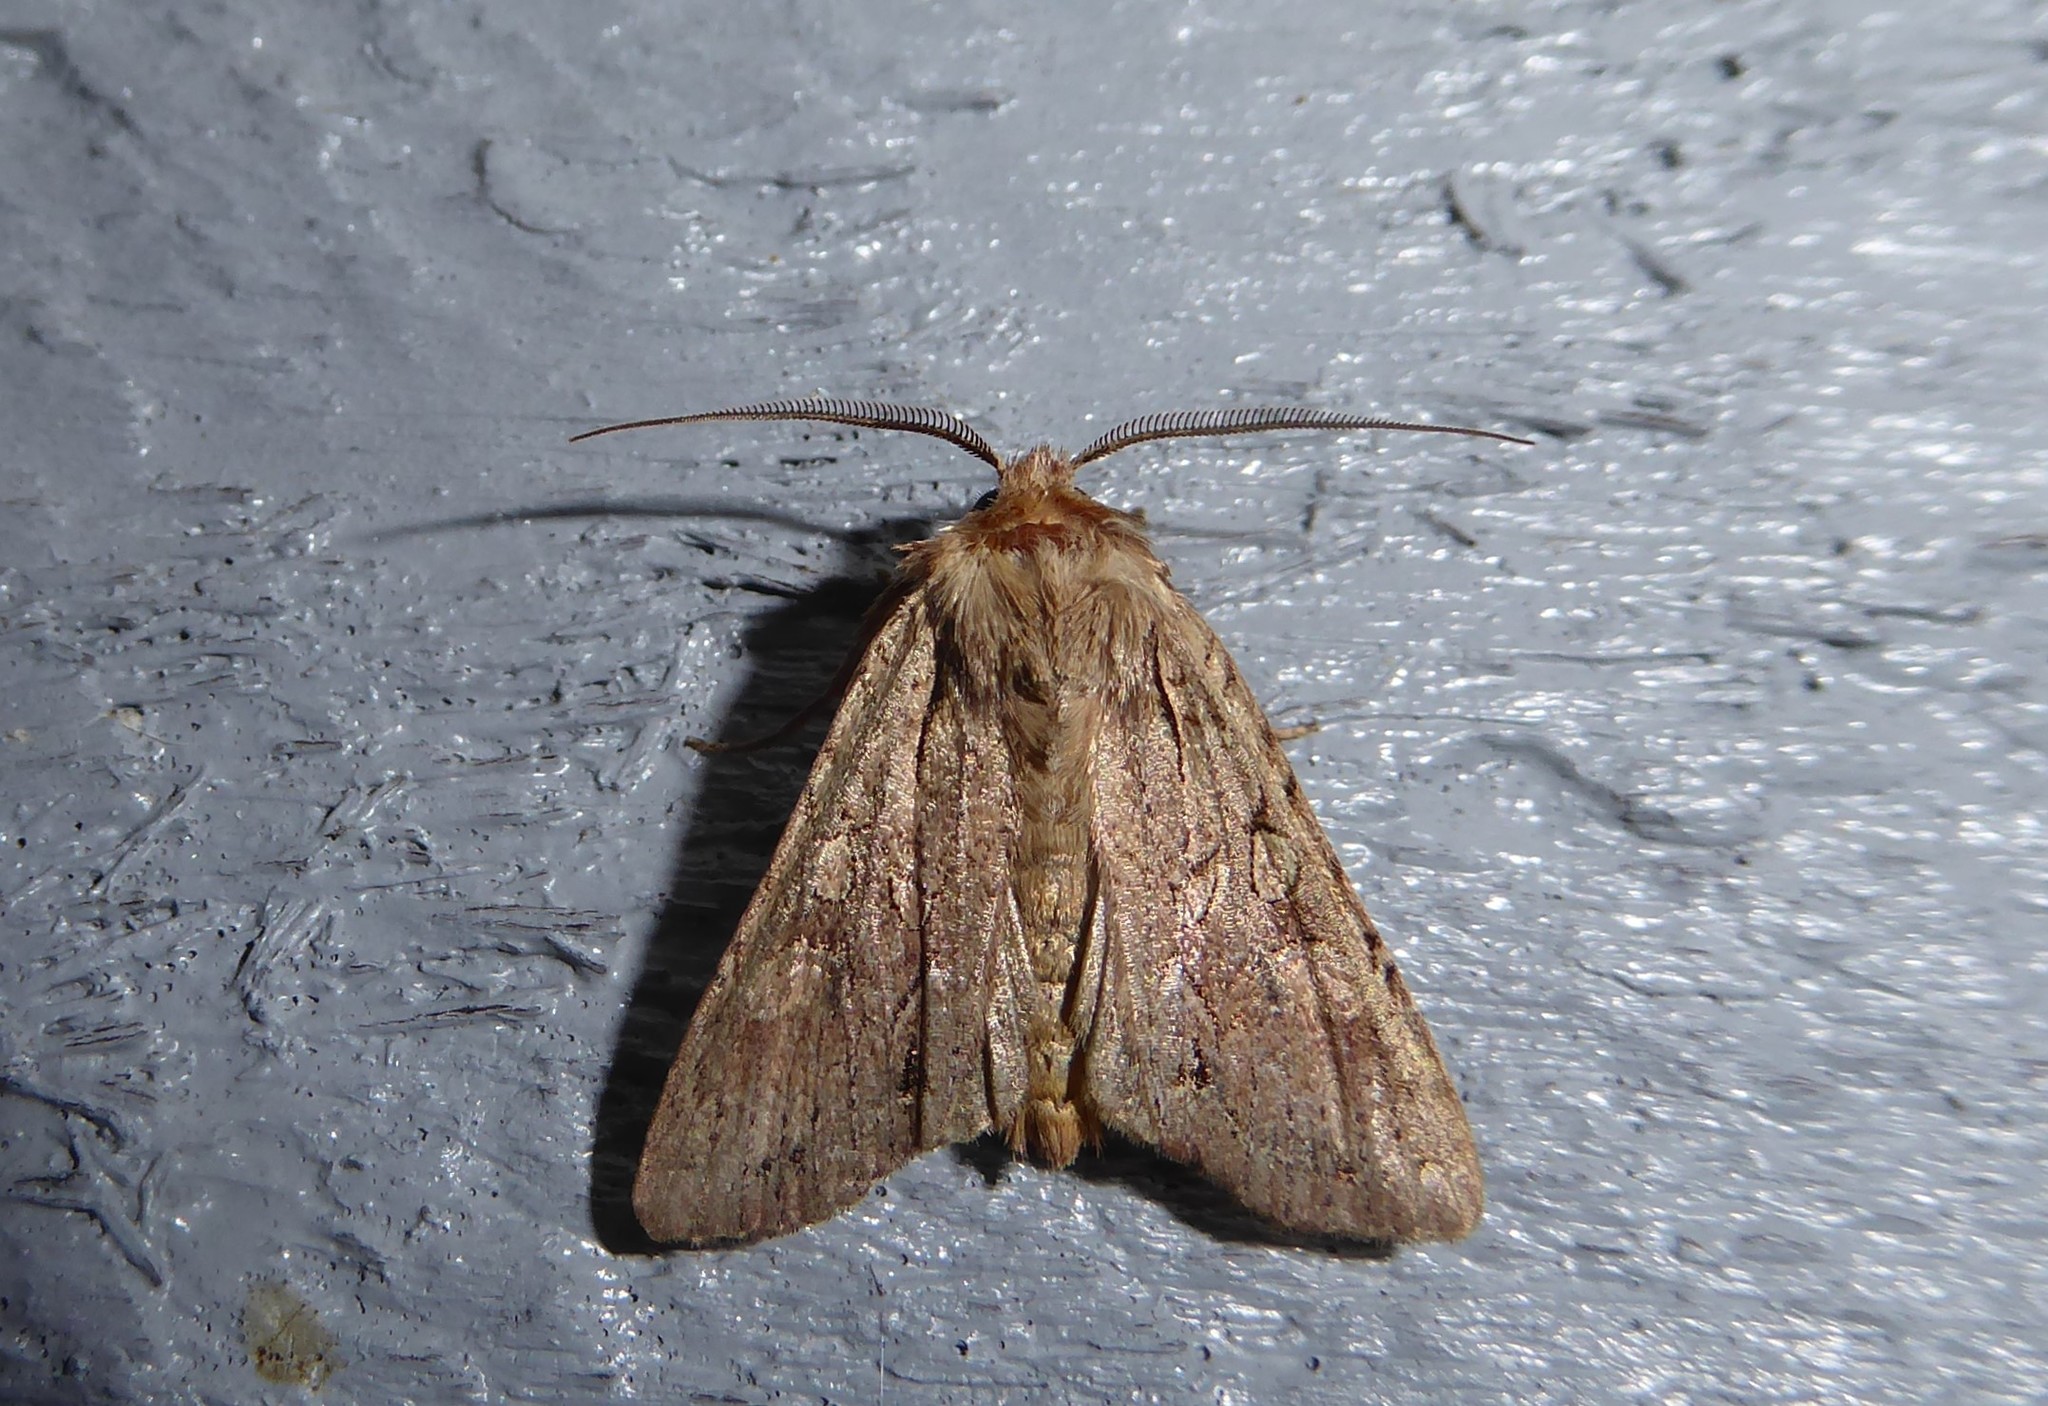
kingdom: Animalia
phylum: Arthropoda
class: Insecta
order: Lepidoptera
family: Noctuidae
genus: Ichneutica
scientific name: Ichneutica
